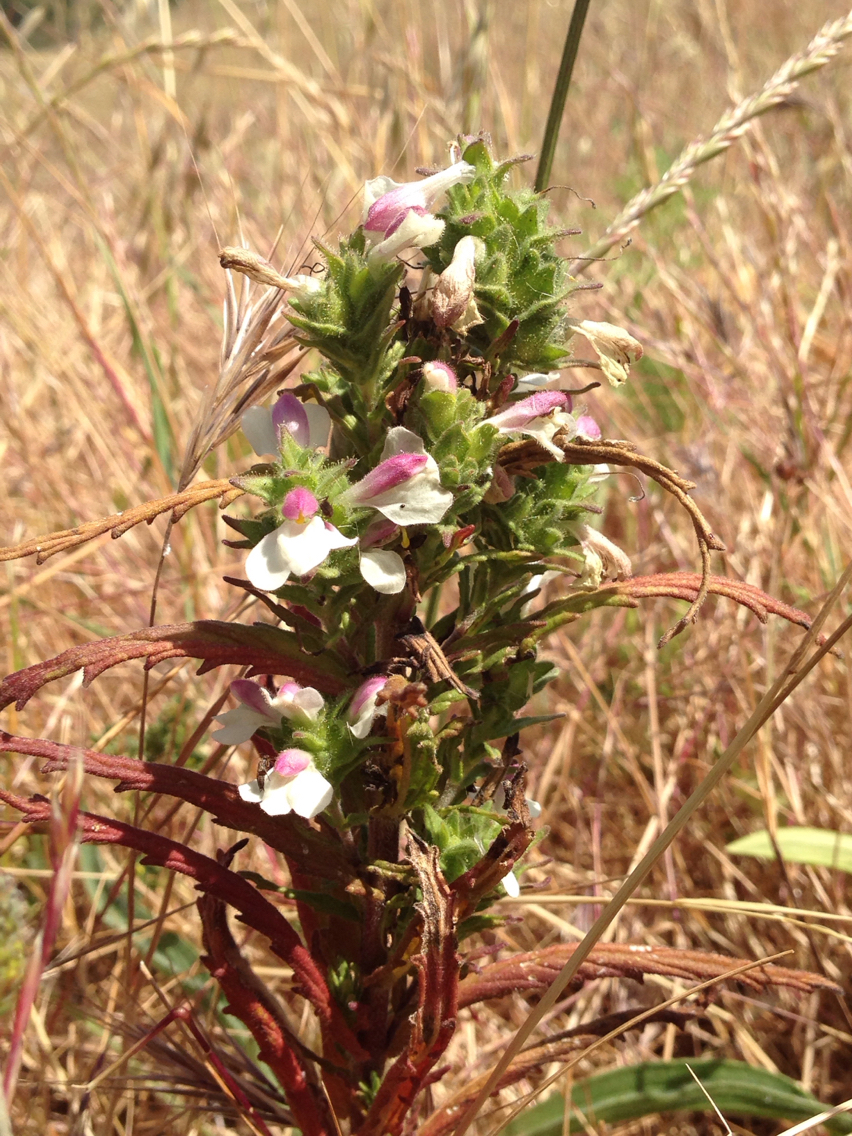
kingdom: Plantae
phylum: Tracheophyta
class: Magnoliopsida
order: Lamiales
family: Orobanchaceae
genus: Bellardia
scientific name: Bellardia trixago
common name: Mediterranean lineseed
